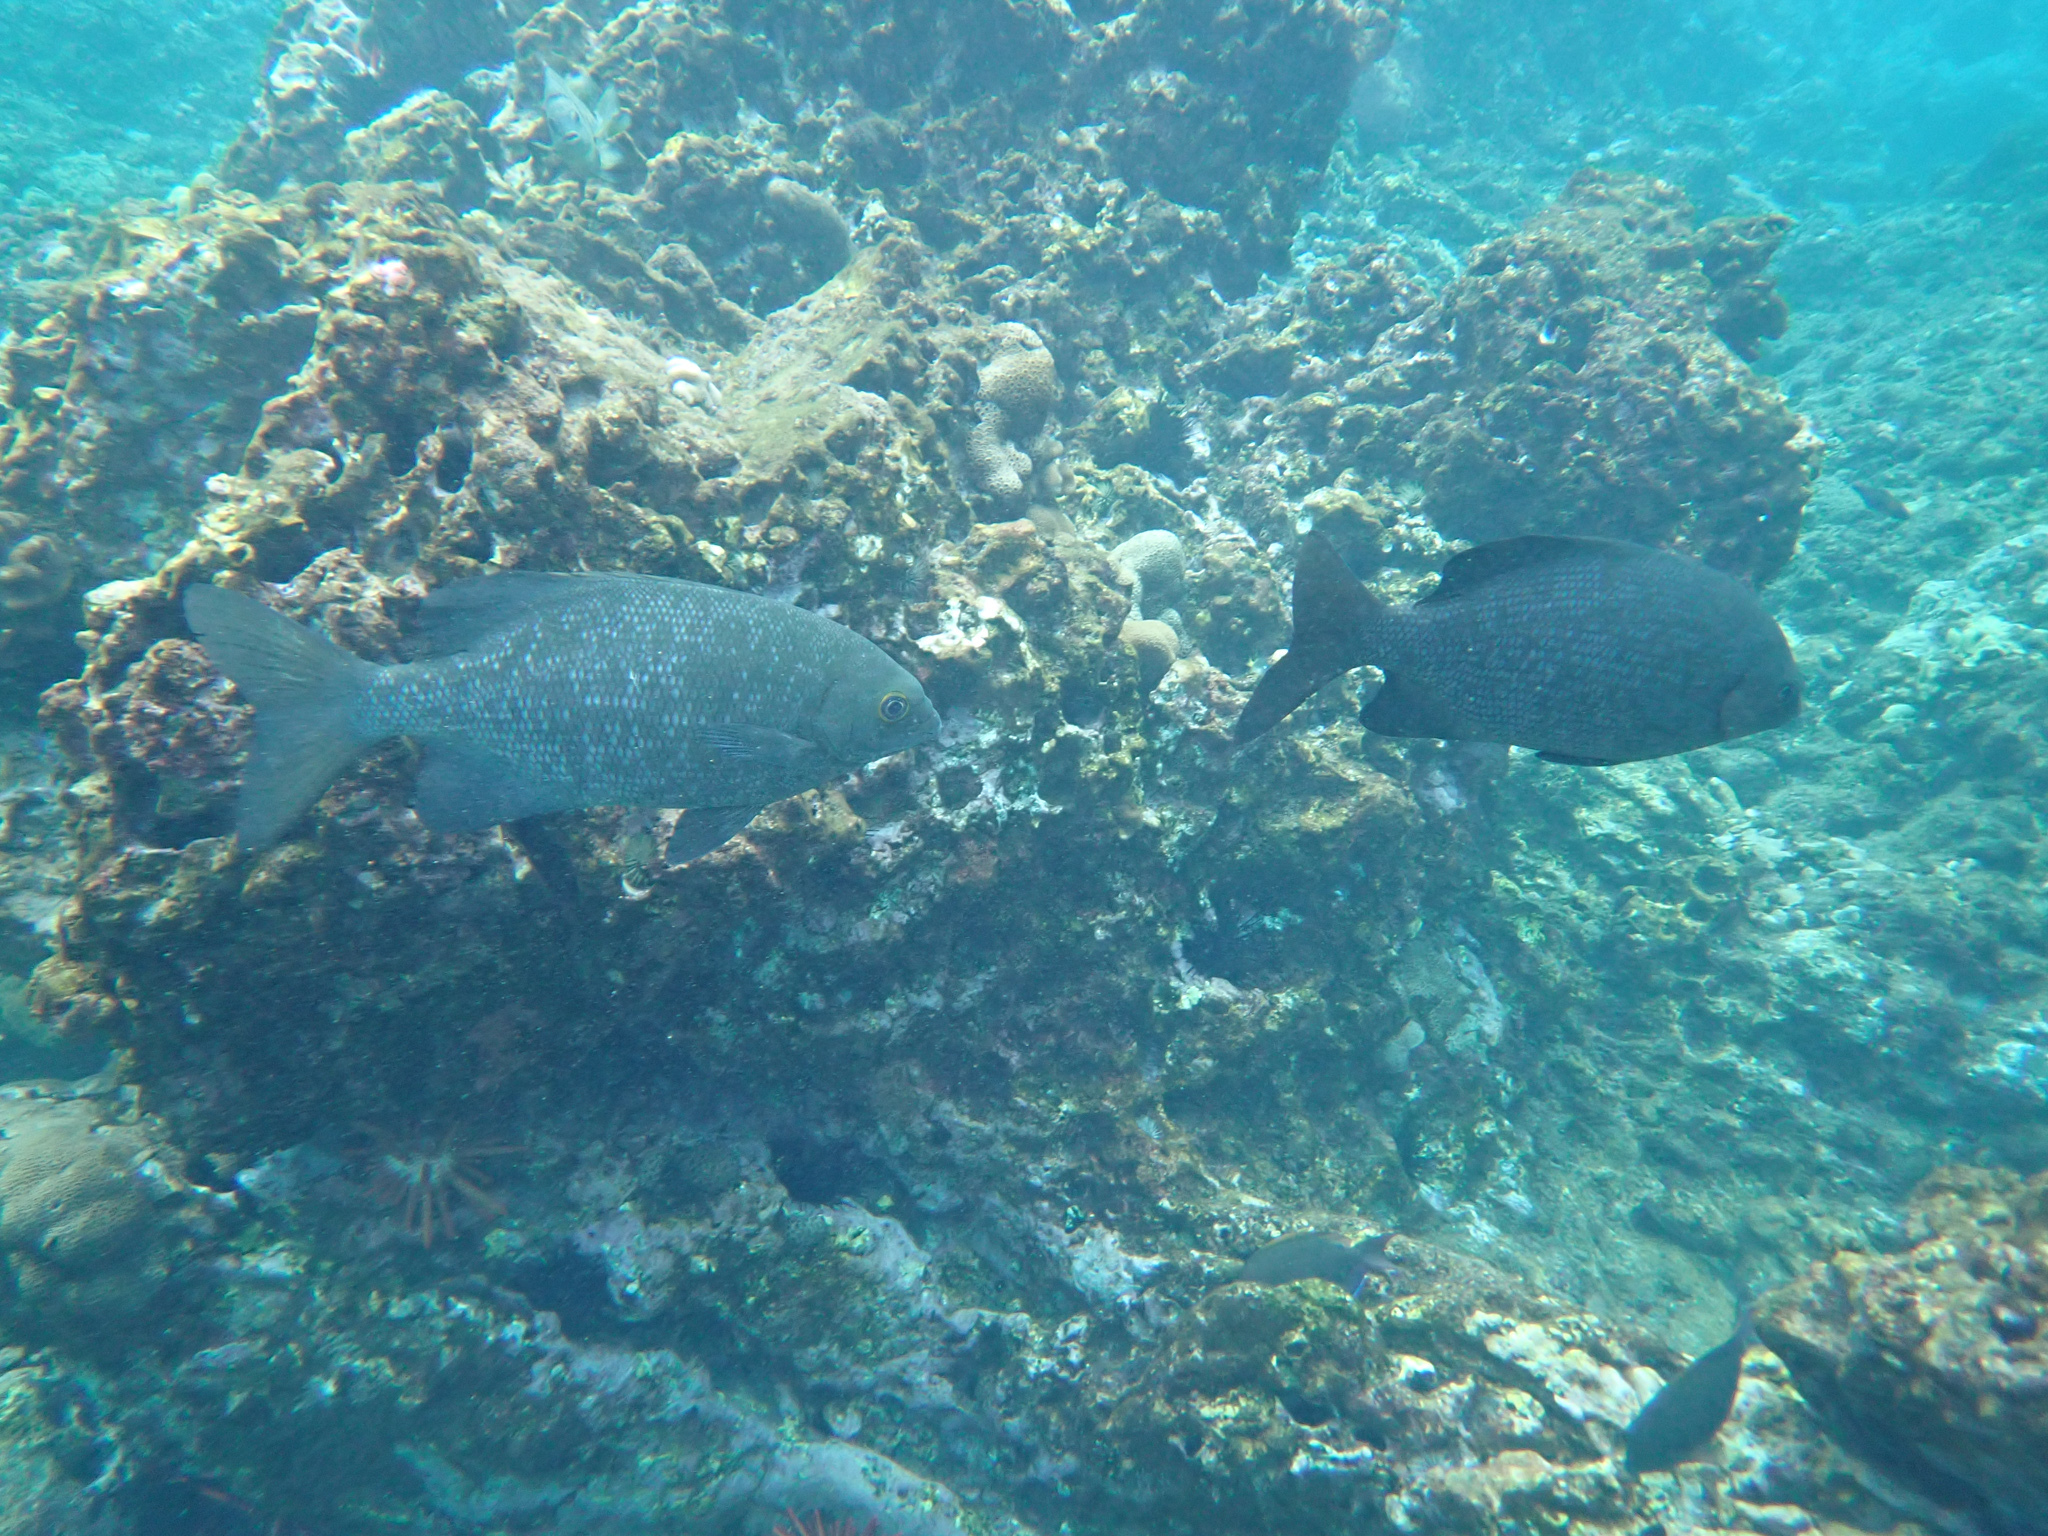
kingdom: Animalia
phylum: Chordata
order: Perciformes
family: Kyphosidae
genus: Kyphosus
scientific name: Kyphosus cinerascens
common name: Topsail drummer
